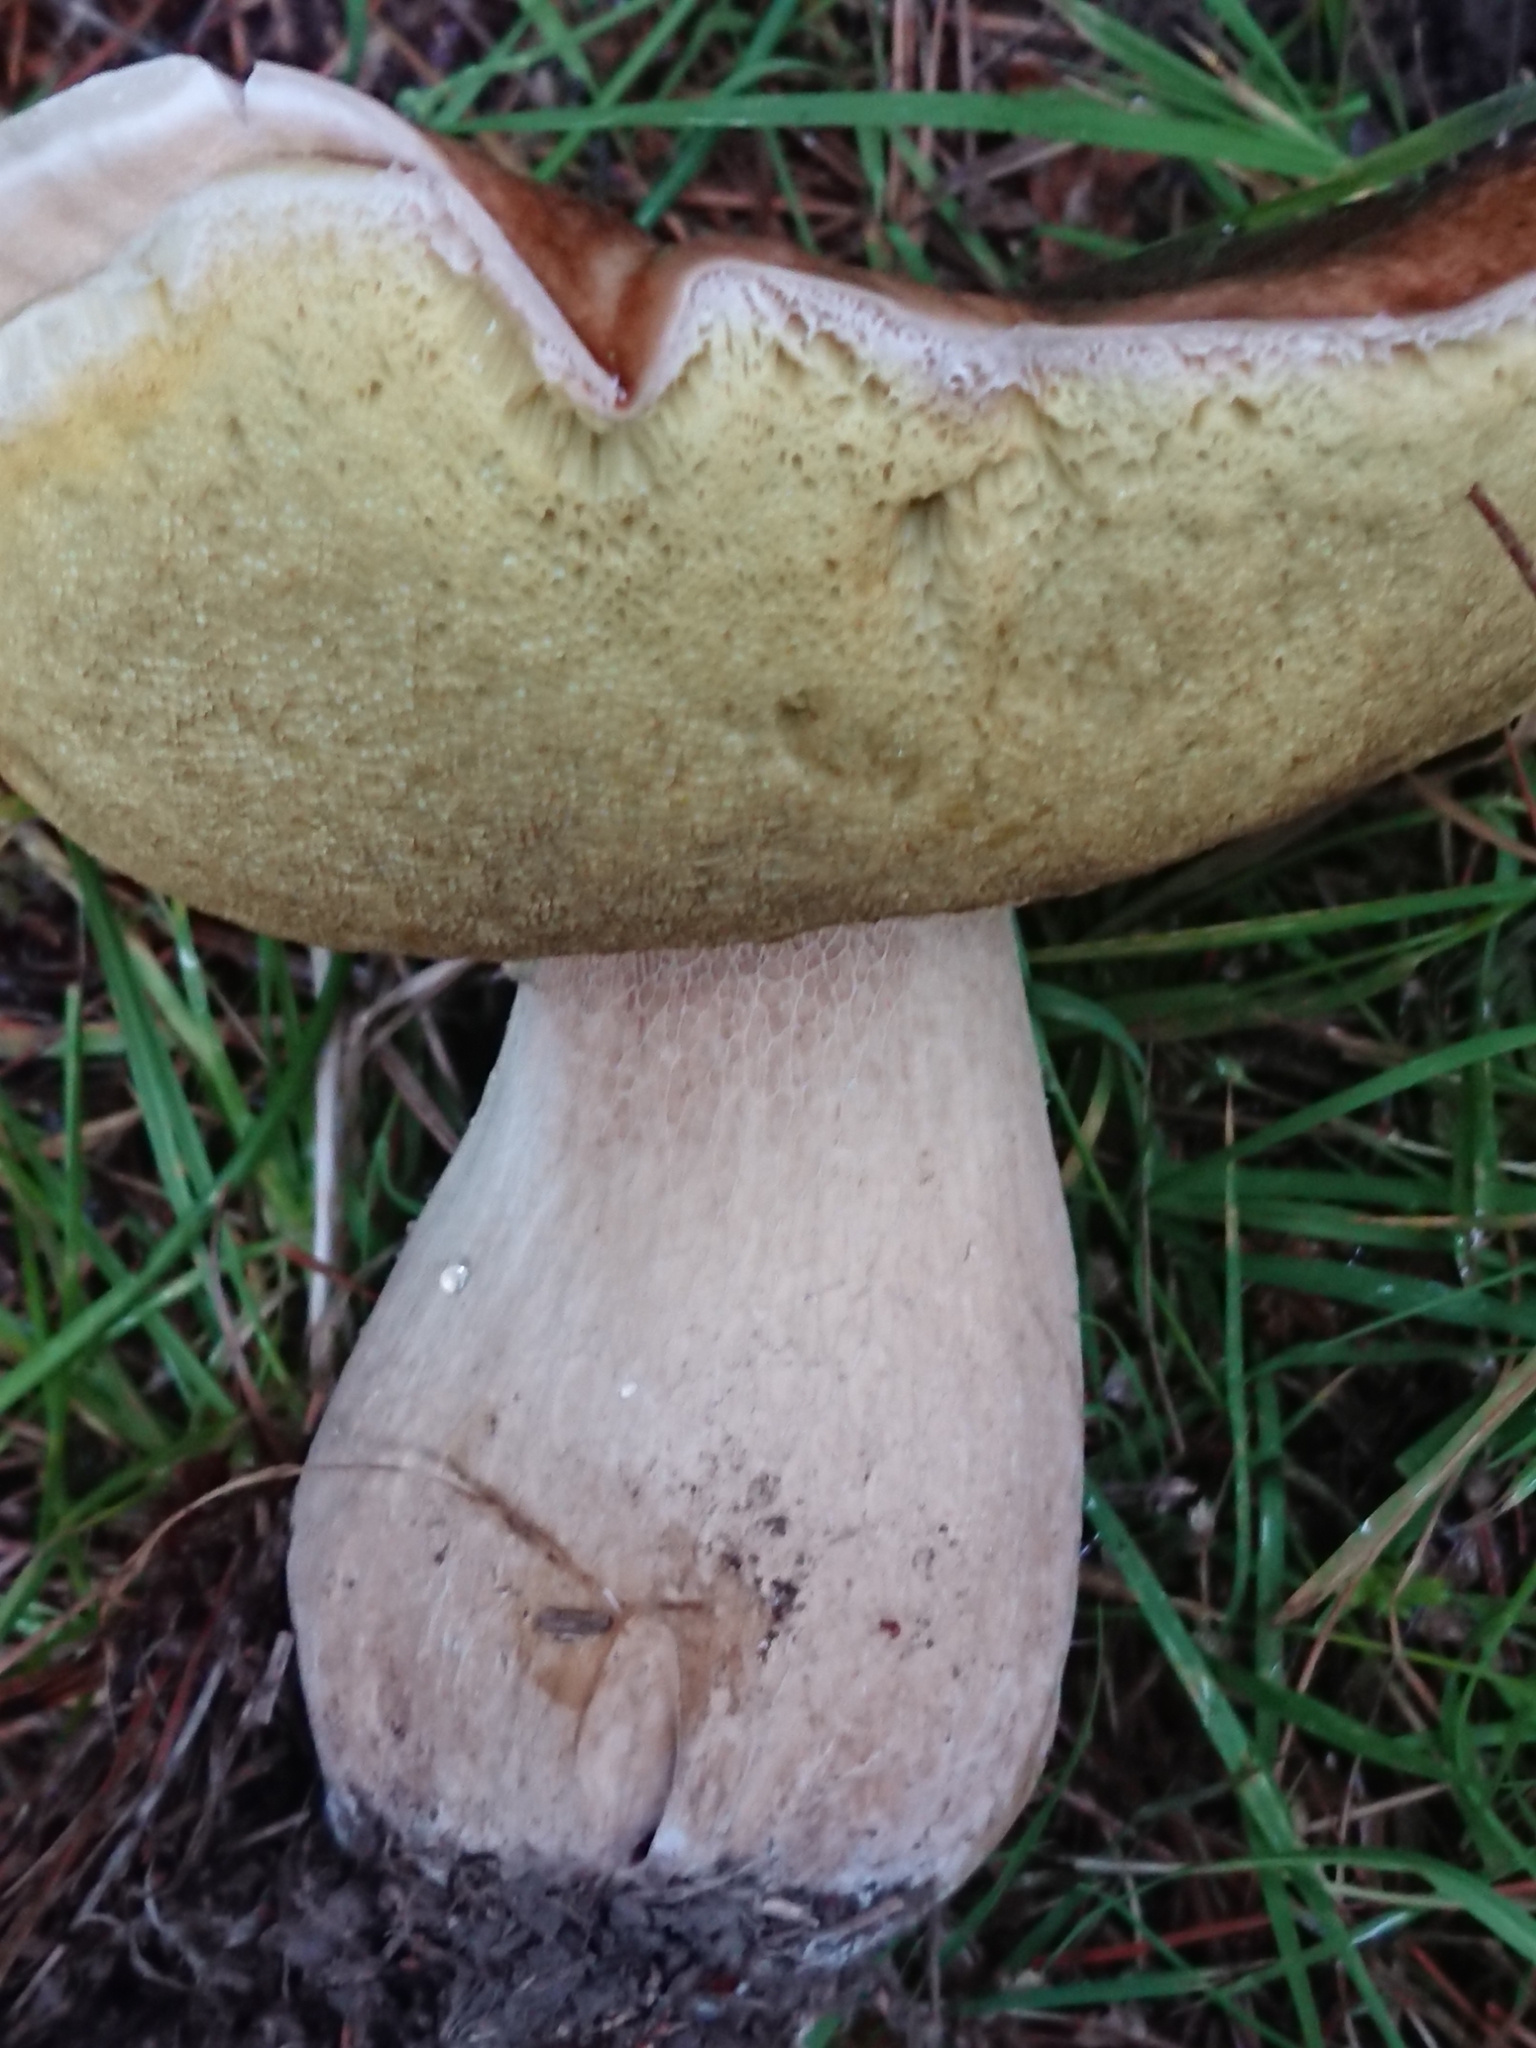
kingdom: Fungi
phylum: Basidiomycota
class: Agaricomycetes
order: Boletales
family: Boletaceae
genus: Boletus
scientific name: Boletus edulis
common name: Cep
